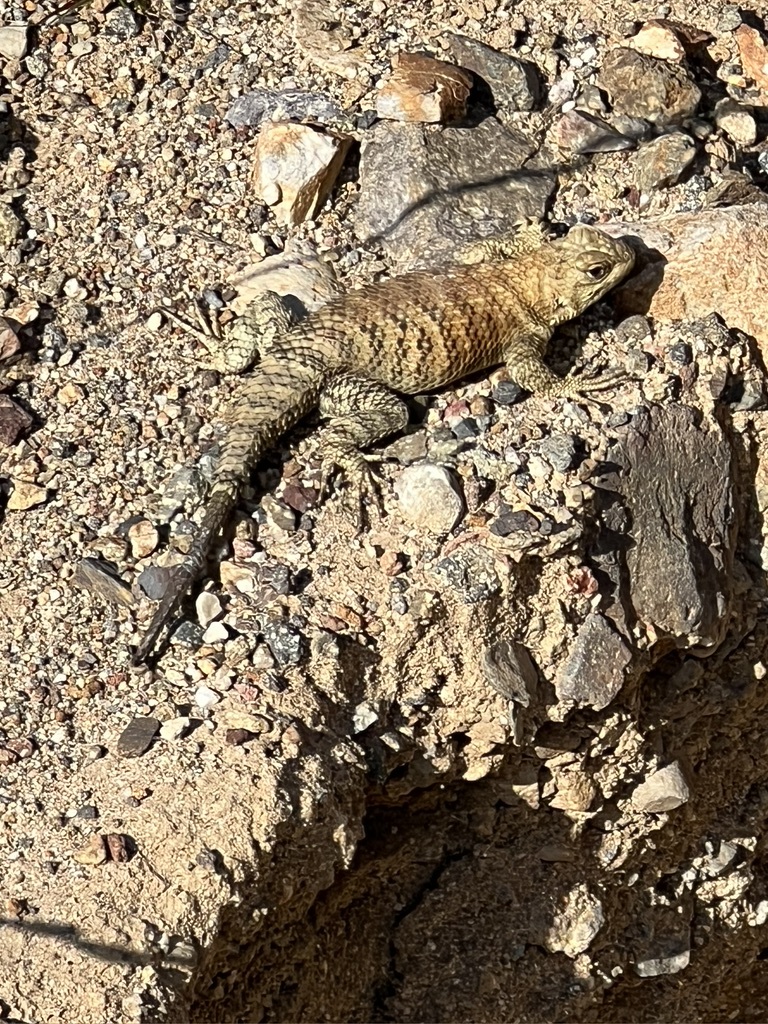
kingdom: Animalia
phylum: Chordata
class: Squamata
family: Phrynosomatidae
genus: Sceloporus
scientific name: Sceloporus orcutti
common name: Granite spiny lizard
